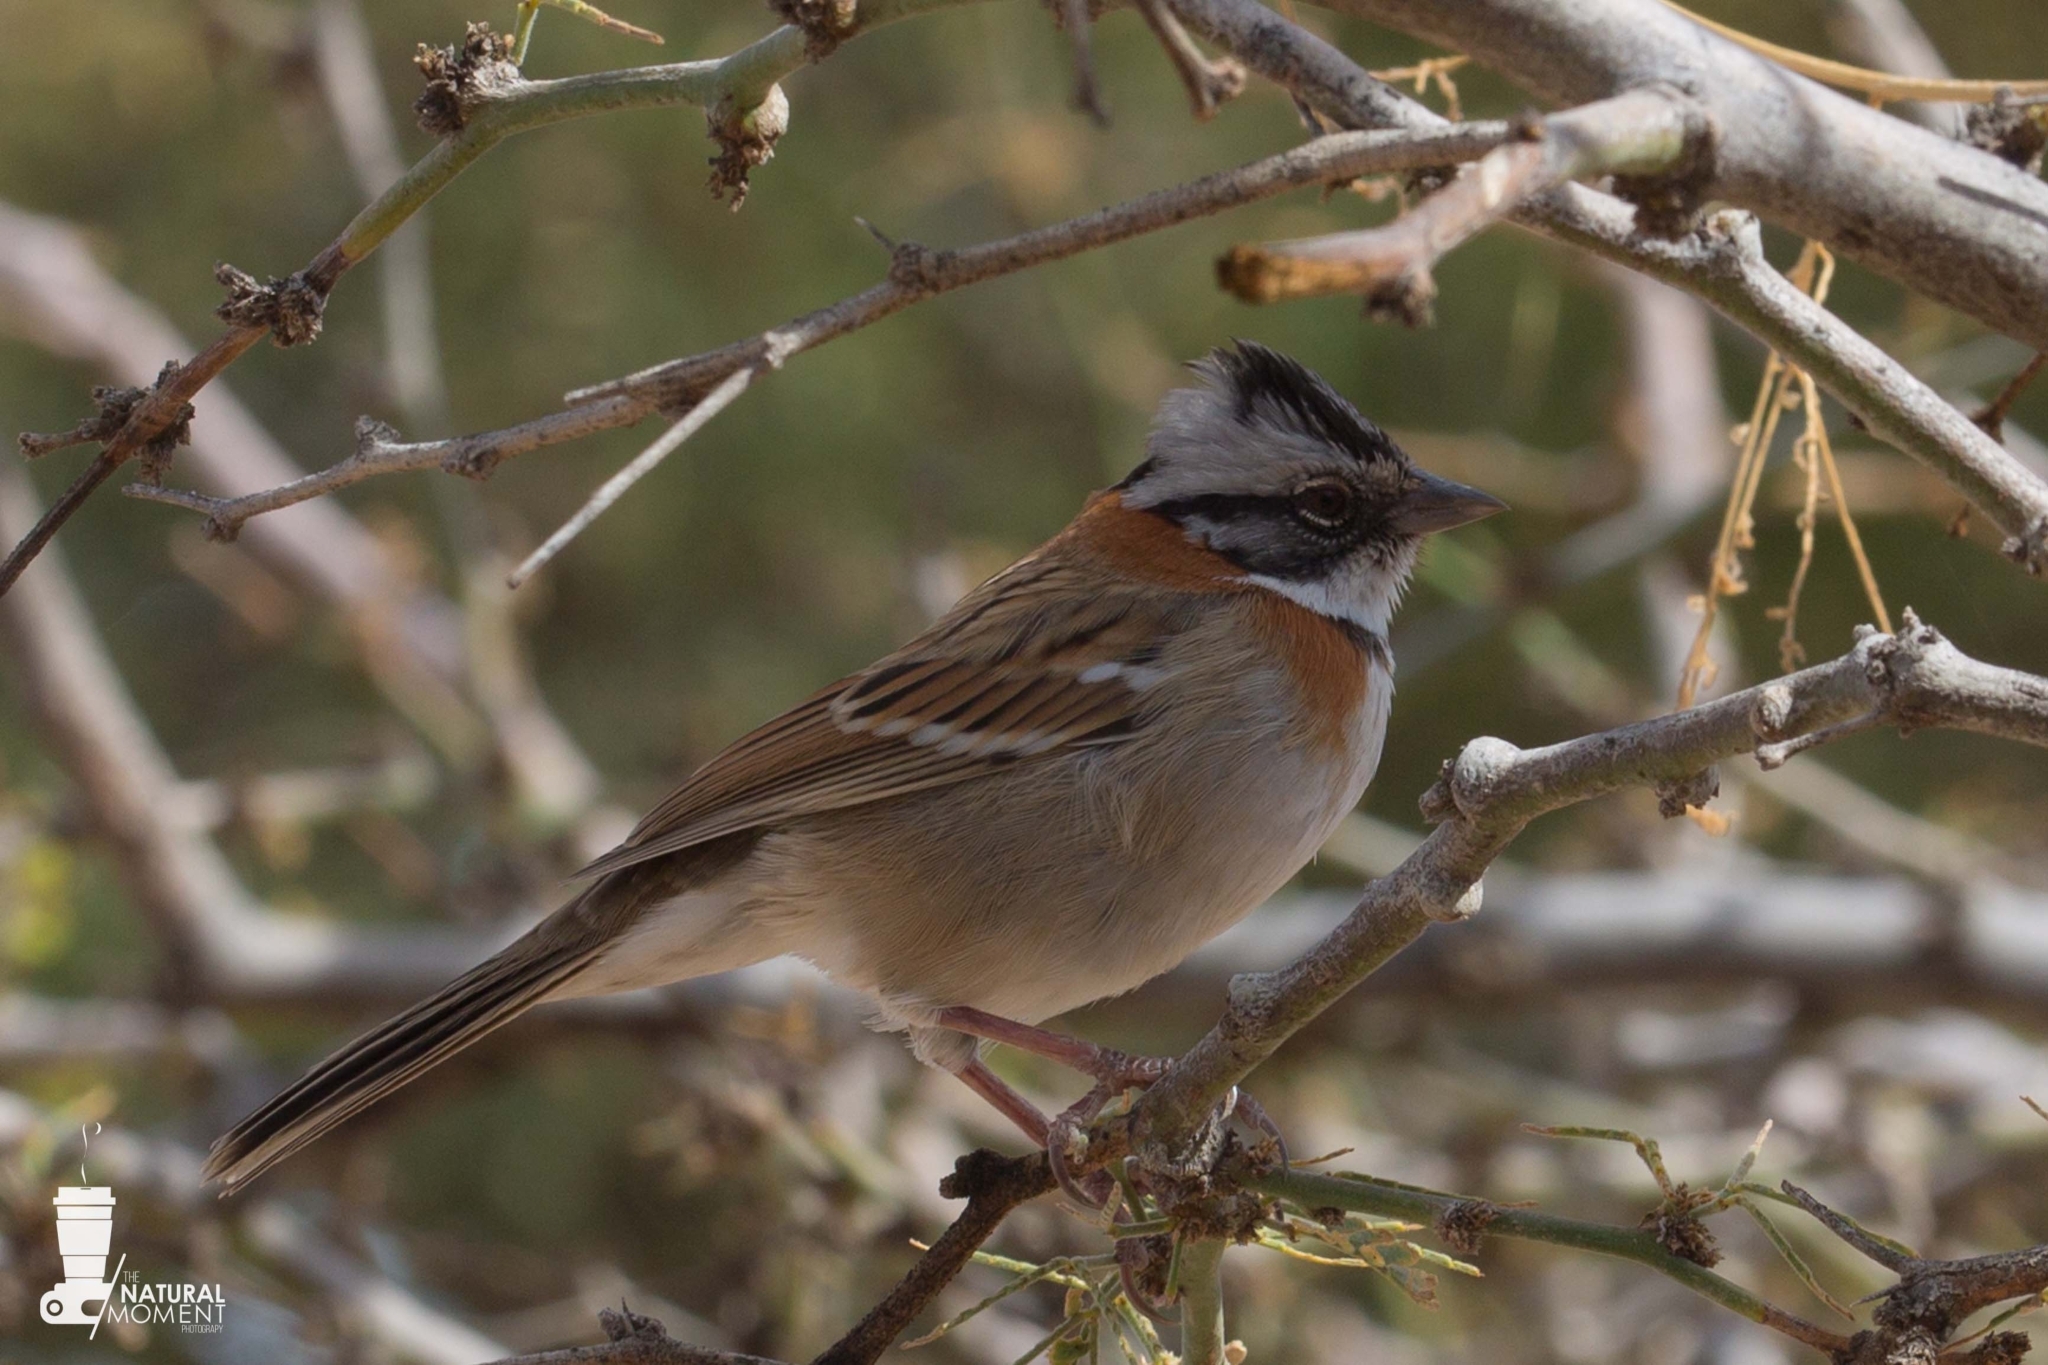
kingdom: Animalia
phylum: Chordata
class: Aves
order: Passeriformes
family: Passerellidae
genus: Zonotrichia
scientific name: Zonotrichia capensis
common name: Rufous-collared sparrow
